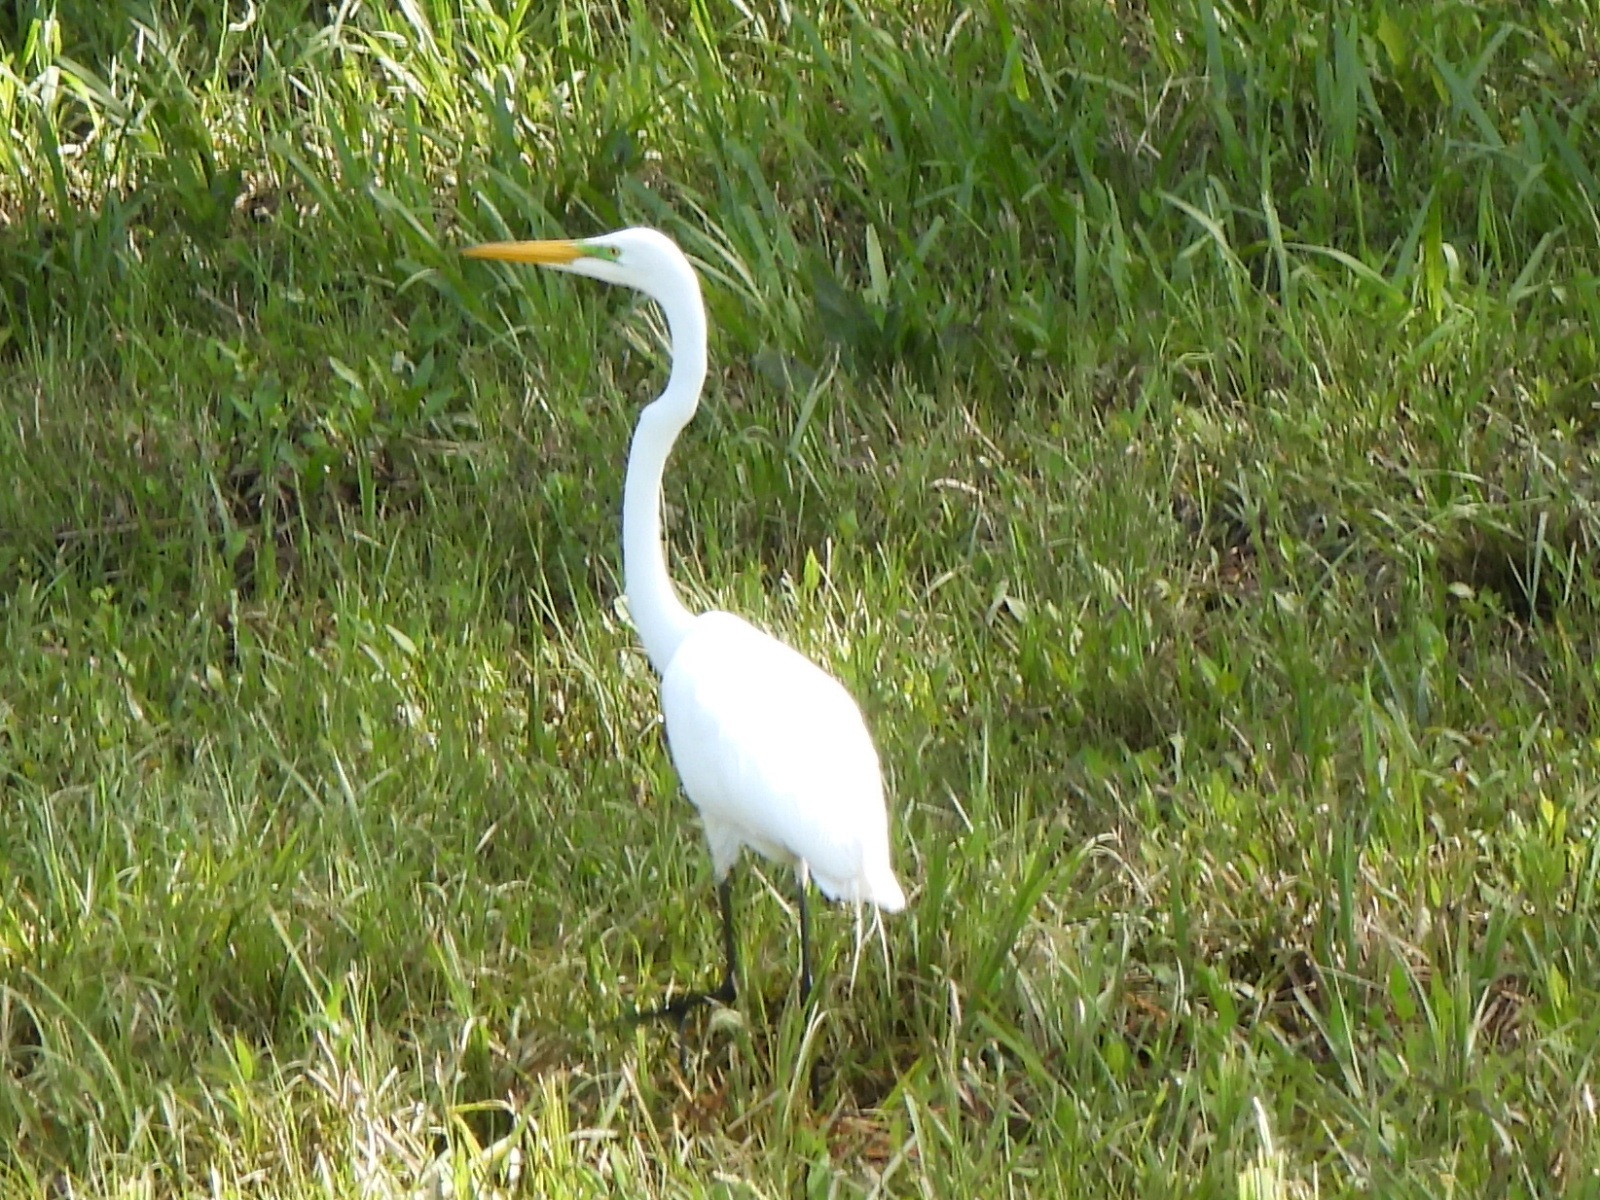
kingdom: Animalia
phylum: Chordata
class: Aves
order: Pelecaniformes
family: Ardeidae
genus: Ardea
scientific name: Ardea alba
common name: Great egret
